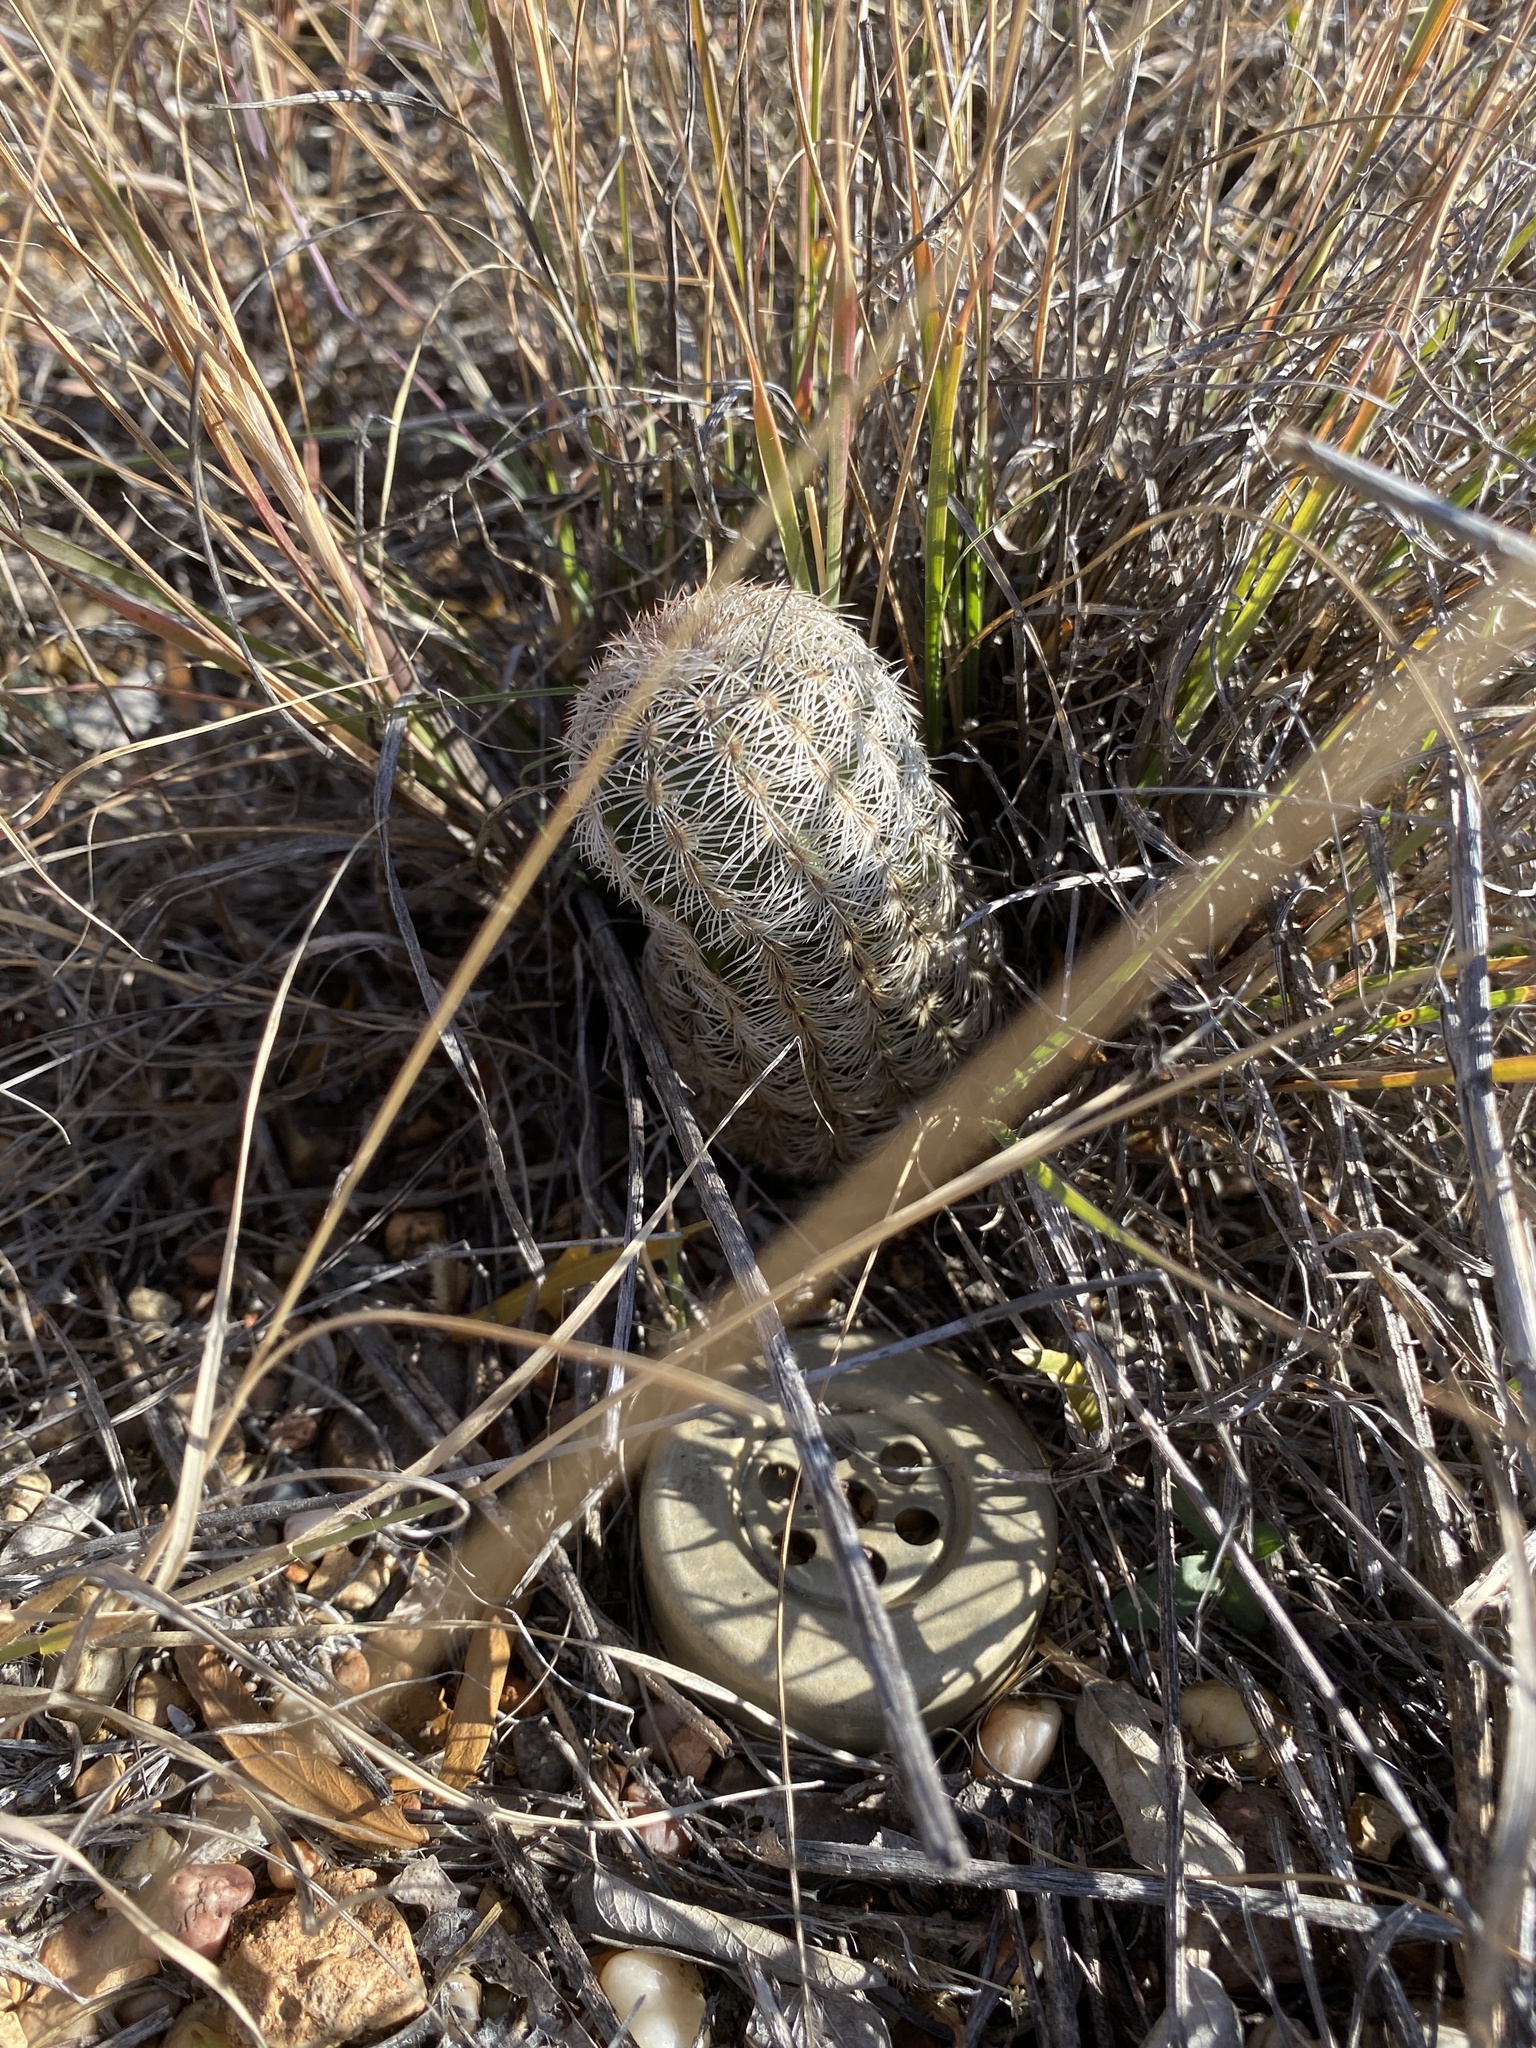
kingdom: Plantae
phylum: Tracheophyta
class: Magnoliopsida
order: Caryophyllales
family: Cactaceae
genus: Echinocereus
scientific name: Echinocereus reichenbachii
